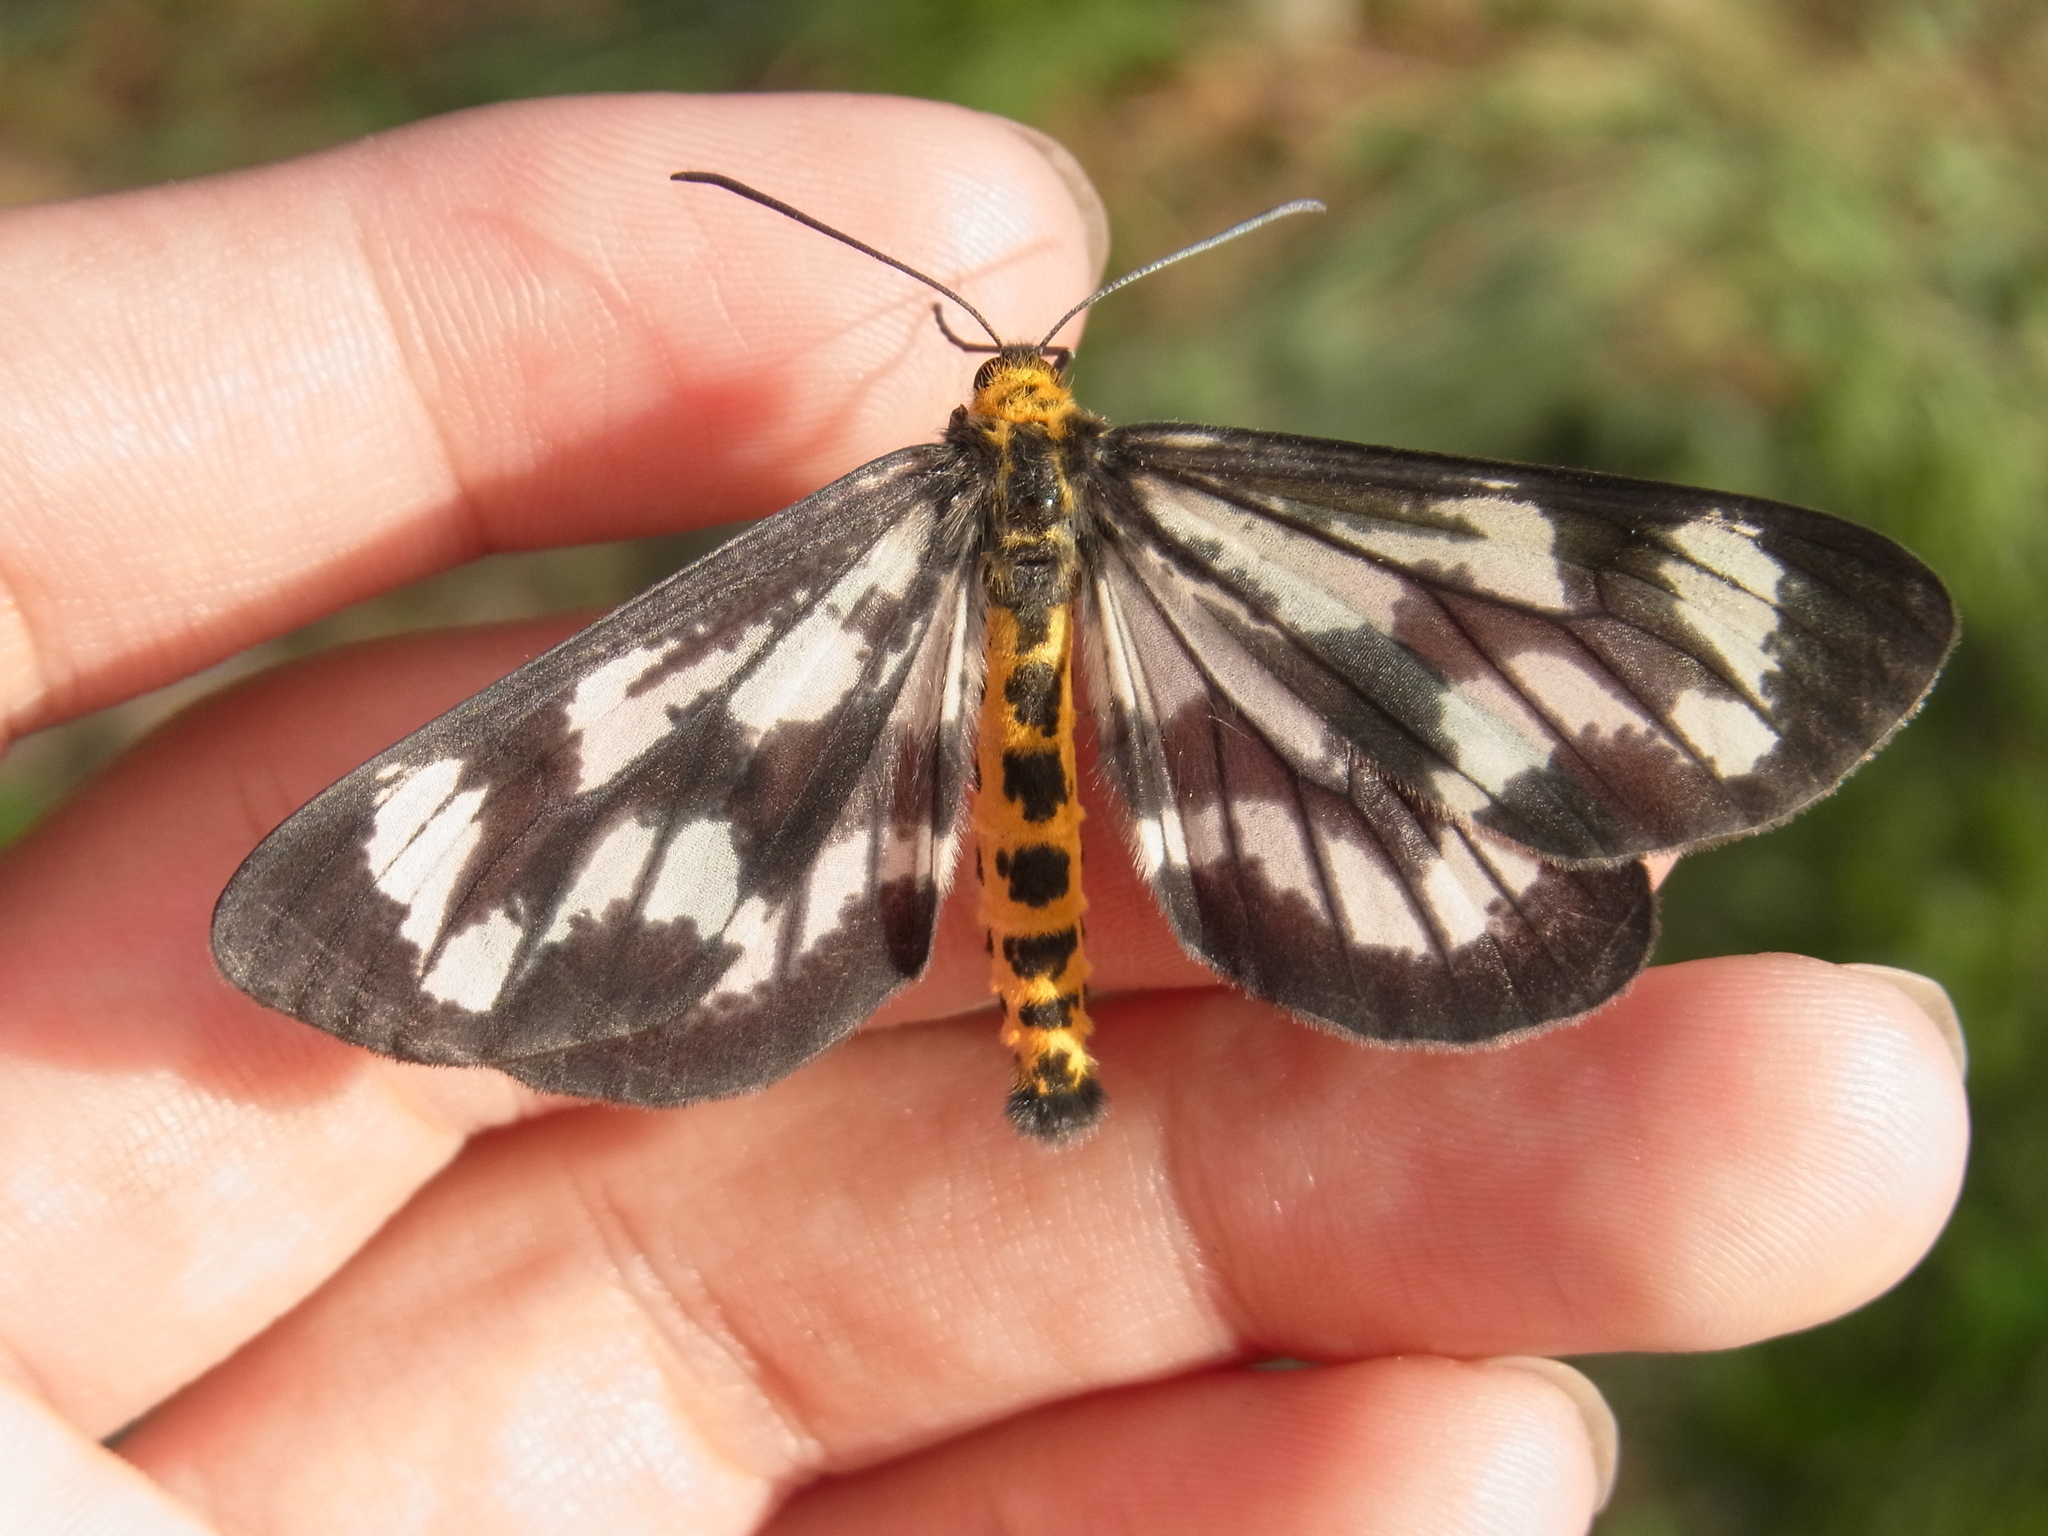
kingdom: Animalia
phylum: Arthropoda
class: Insecta
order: Lepidoptera
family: Geometridae
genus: Cystidia
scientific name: Cystidia truncangulata
